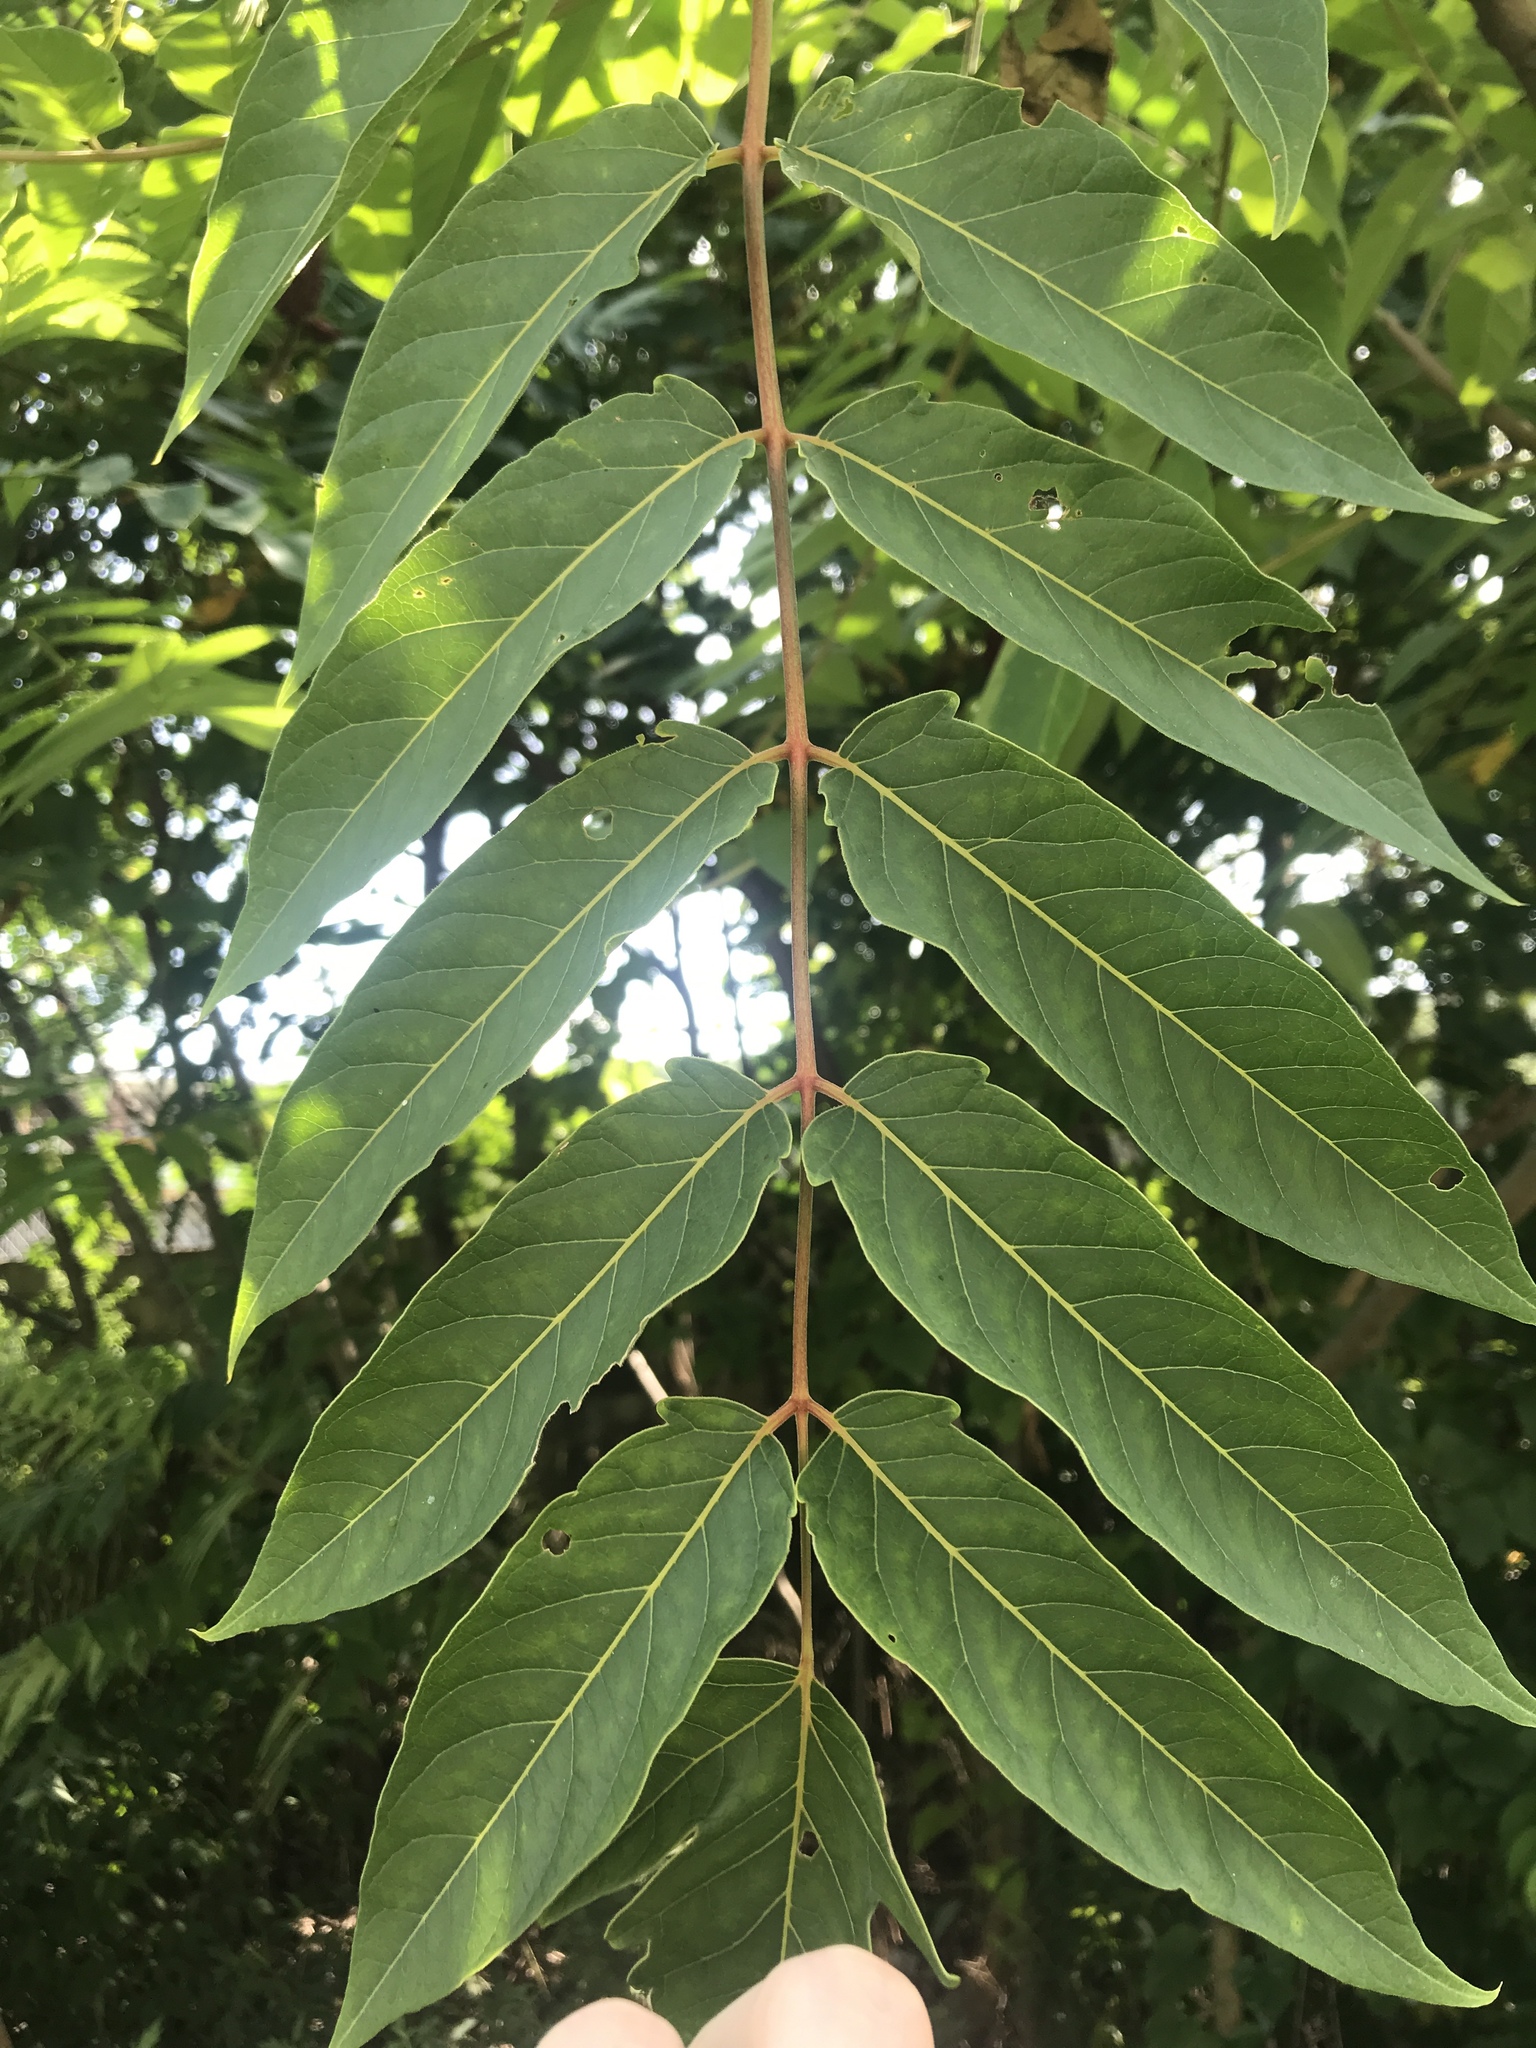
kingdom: Plantae
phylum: Tracheophyta
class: Magnoliopsida
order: Sapindales
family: Simaroubaceae
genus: Ailanthus
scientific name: Ailanthus altissima
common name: Tree-of-heaven
